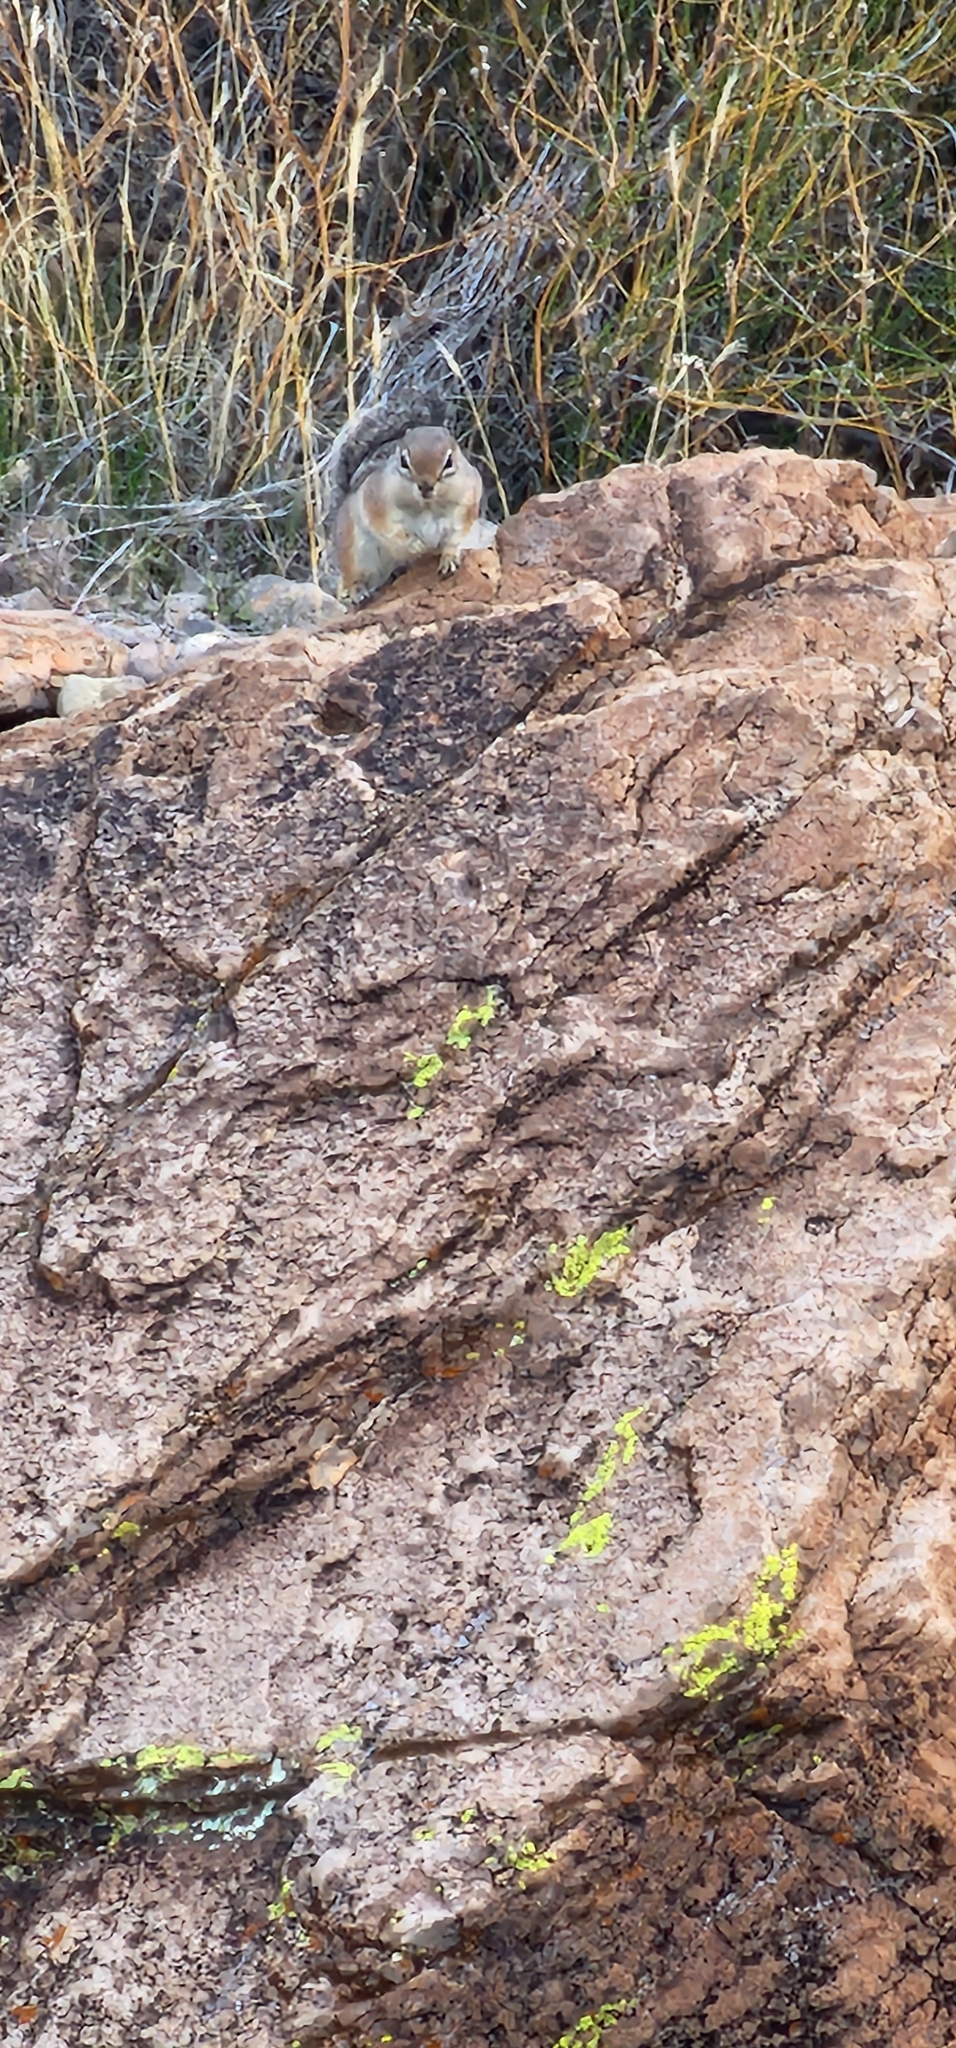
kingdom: Animalia
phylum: Chordata
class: Mammalia
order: Rodentia
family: Sciuridae
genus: Ammospermophilus
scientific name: Ammospermophilus harrisii
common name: Harris's antelope squirrel
